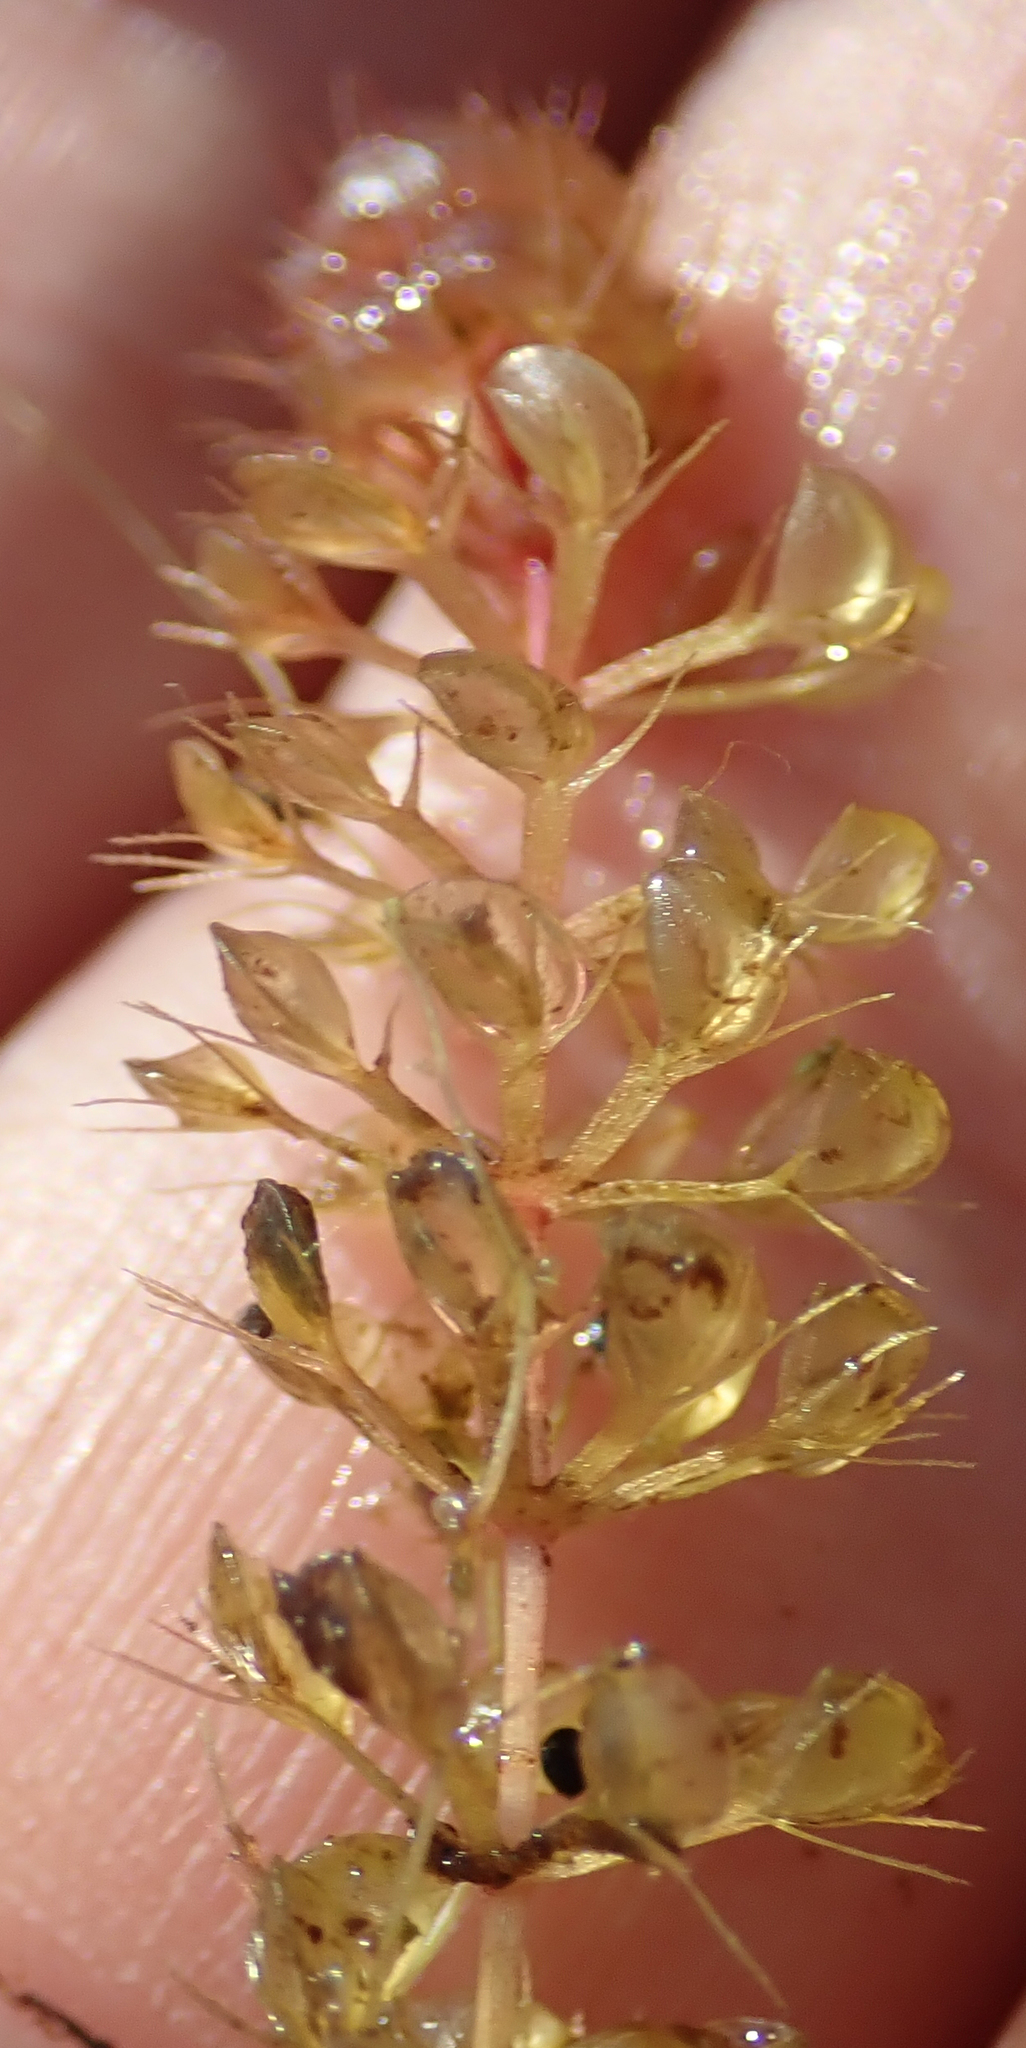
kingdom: Plantae
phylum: Tracheophyta
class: Magnoliopsida
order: Caryophyllales
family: Droseraceae
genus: Aldrovanda
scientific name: Aldrovanda vesiculosa
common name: Waterwheel plant
